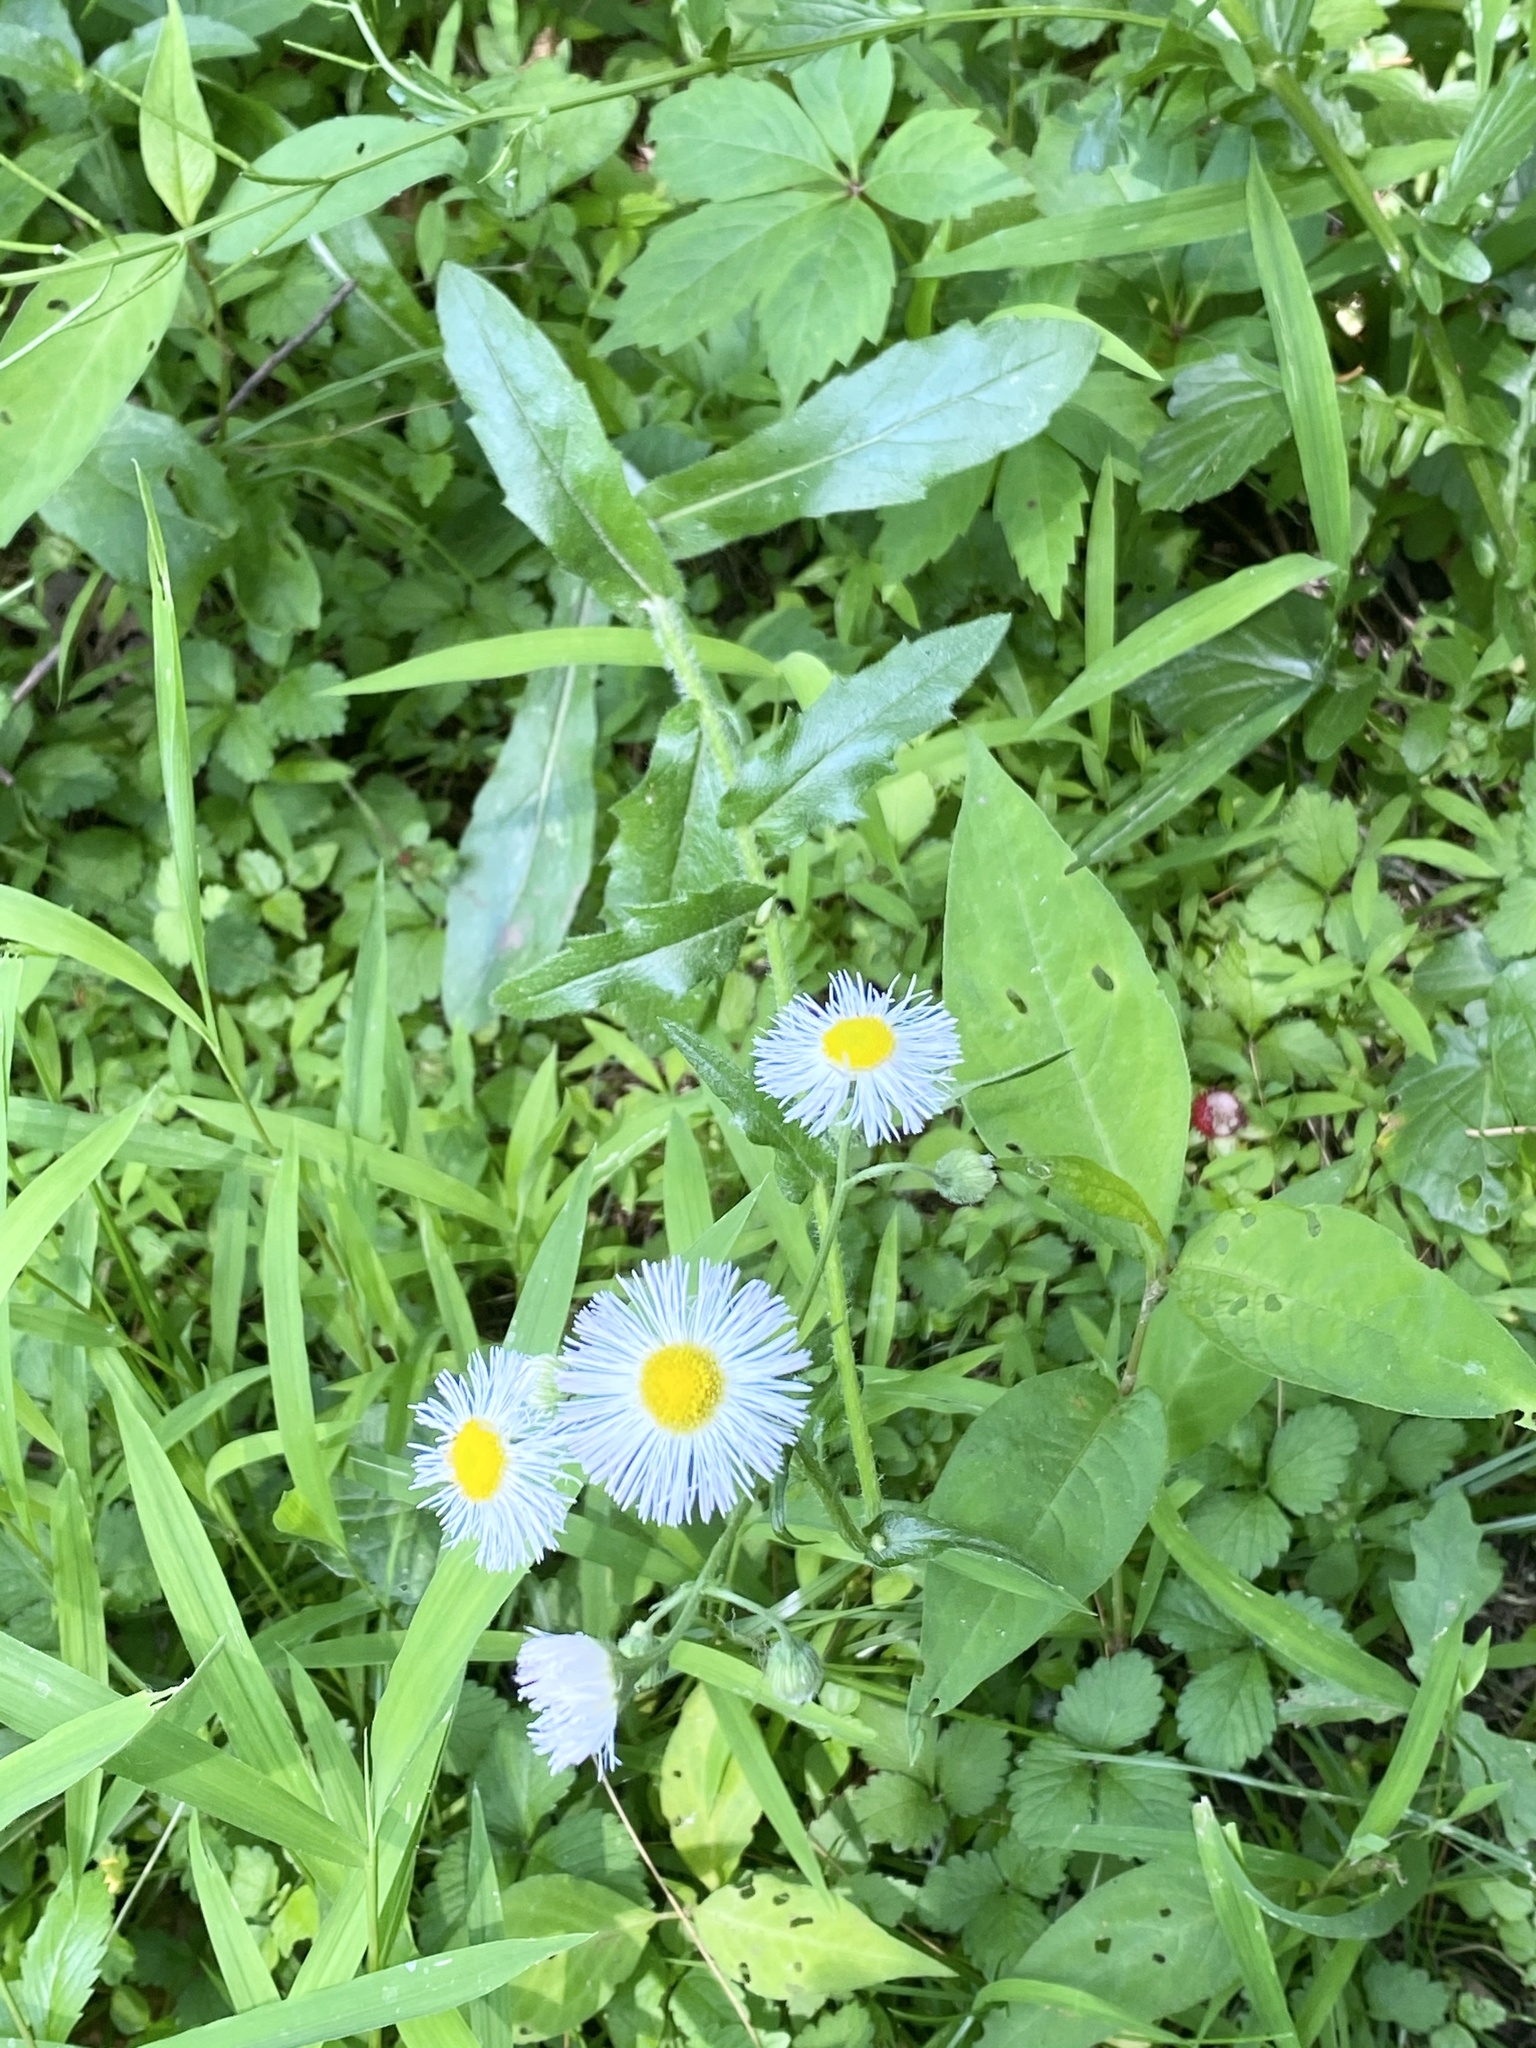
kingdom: Plantae
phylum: Tracheophyta
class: Magnoliopsida
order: Asterales
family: Asteraceae
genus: Erigeron
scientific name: Erigeron philadelphicus
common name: Robin's-plantain
